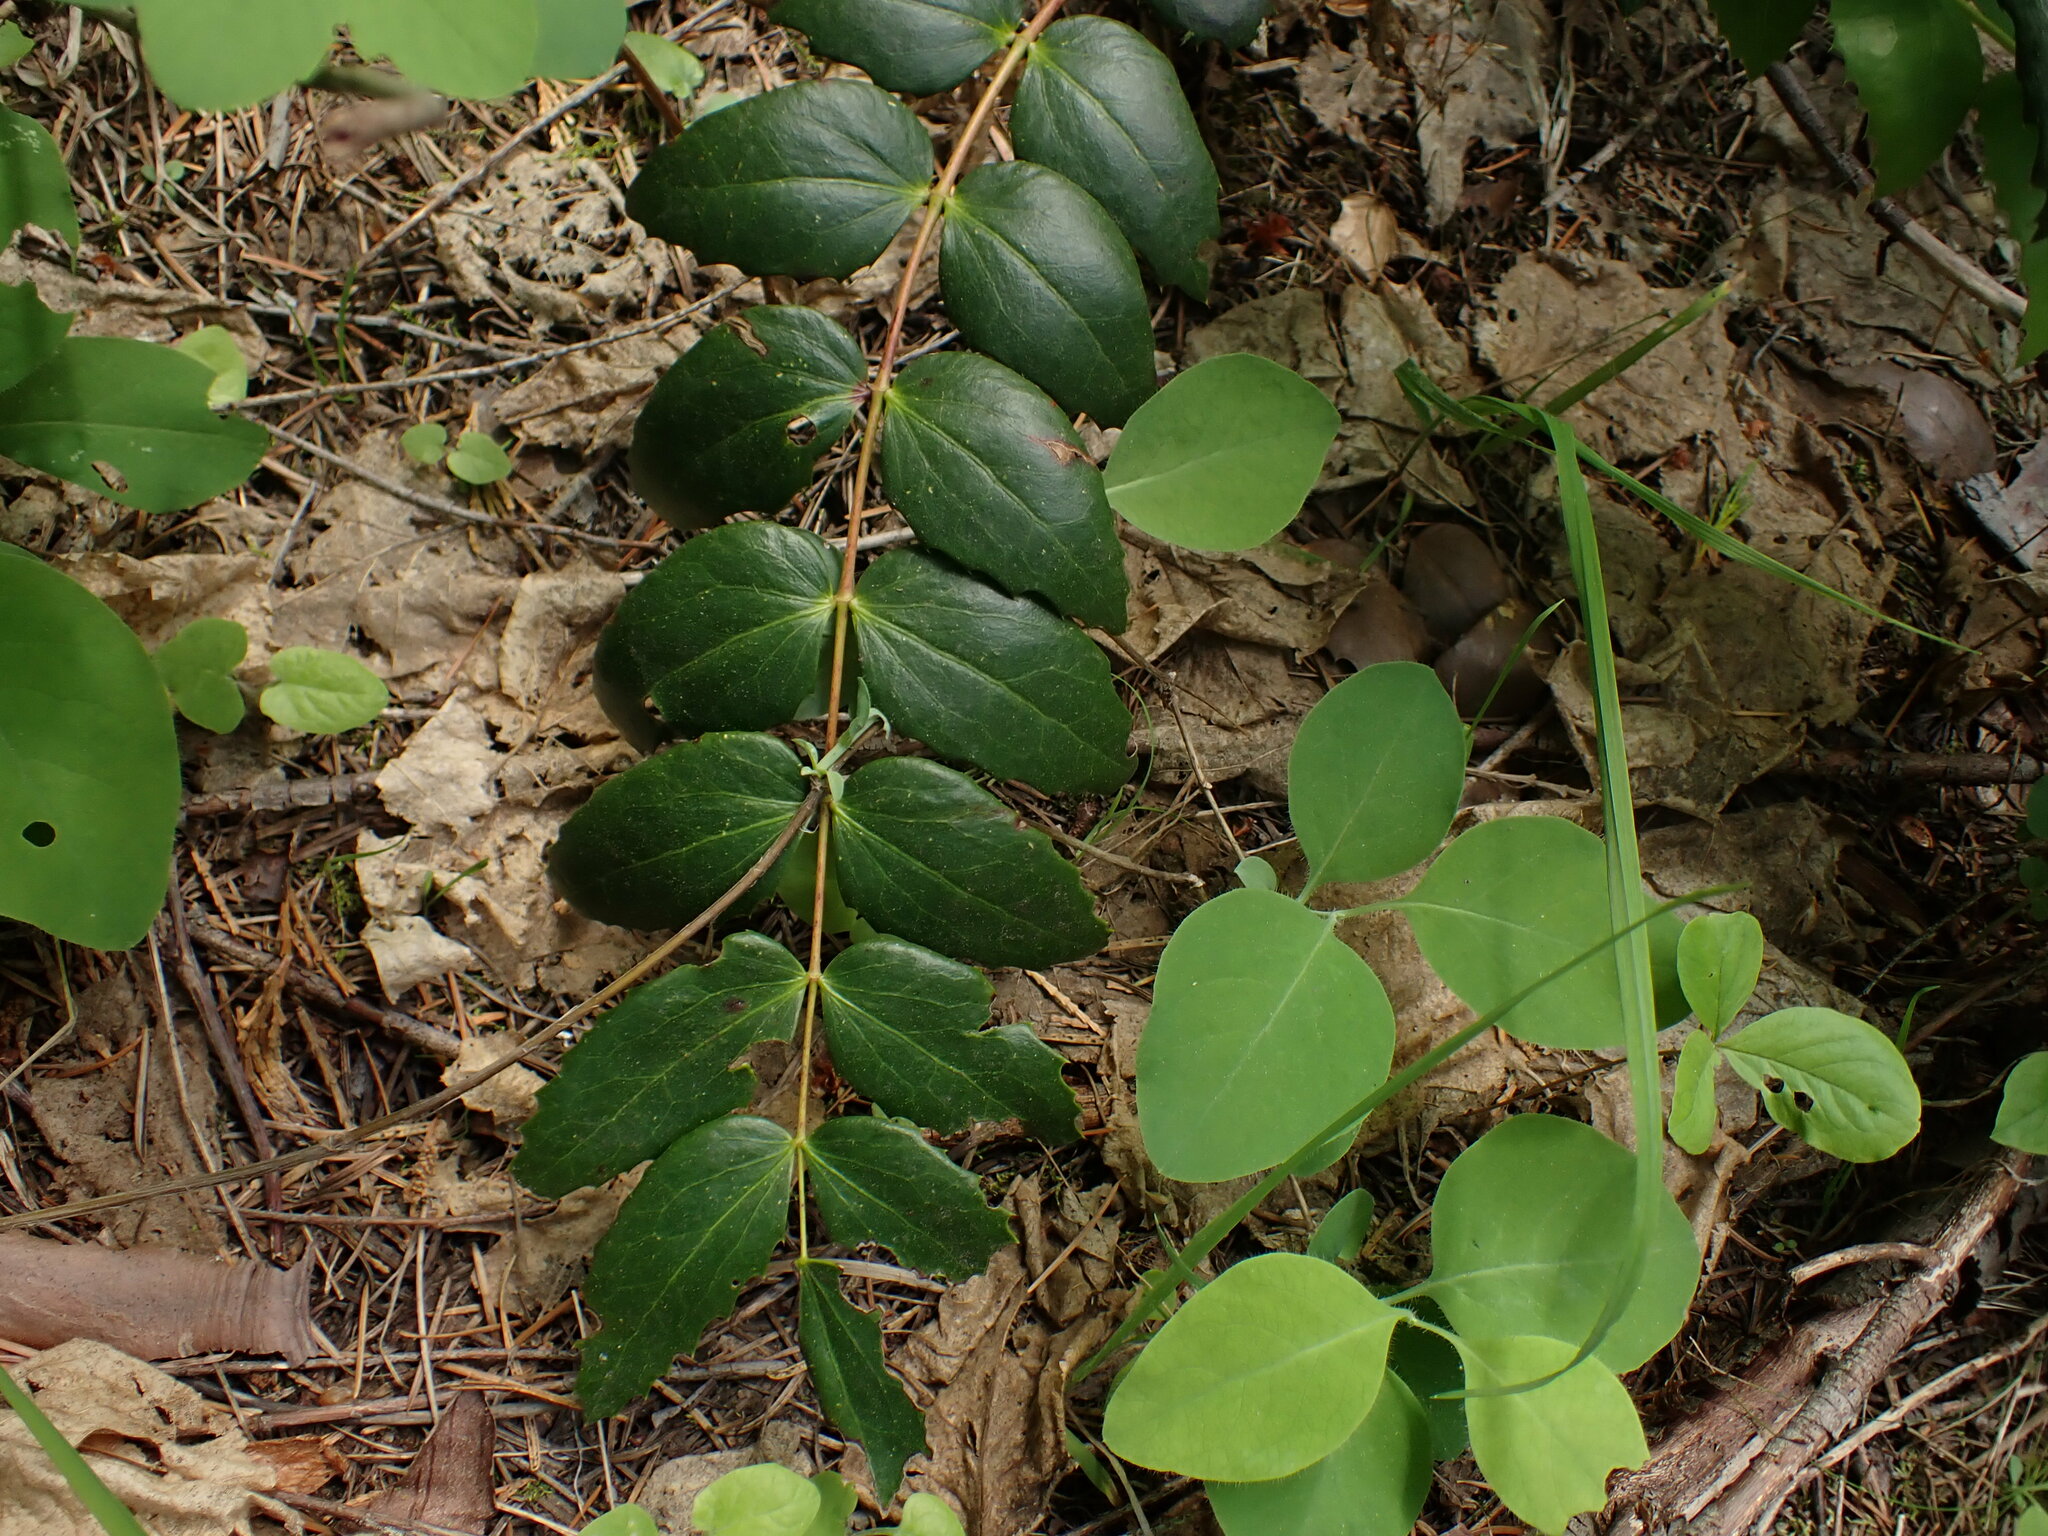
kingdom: Plantae
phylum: Tracheophyta
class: Magnoliopsida
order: Ranunculales
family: Berberidaceae
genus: Mahonia
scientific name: Mahonia nervosa
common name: Cascade oregon-grape
